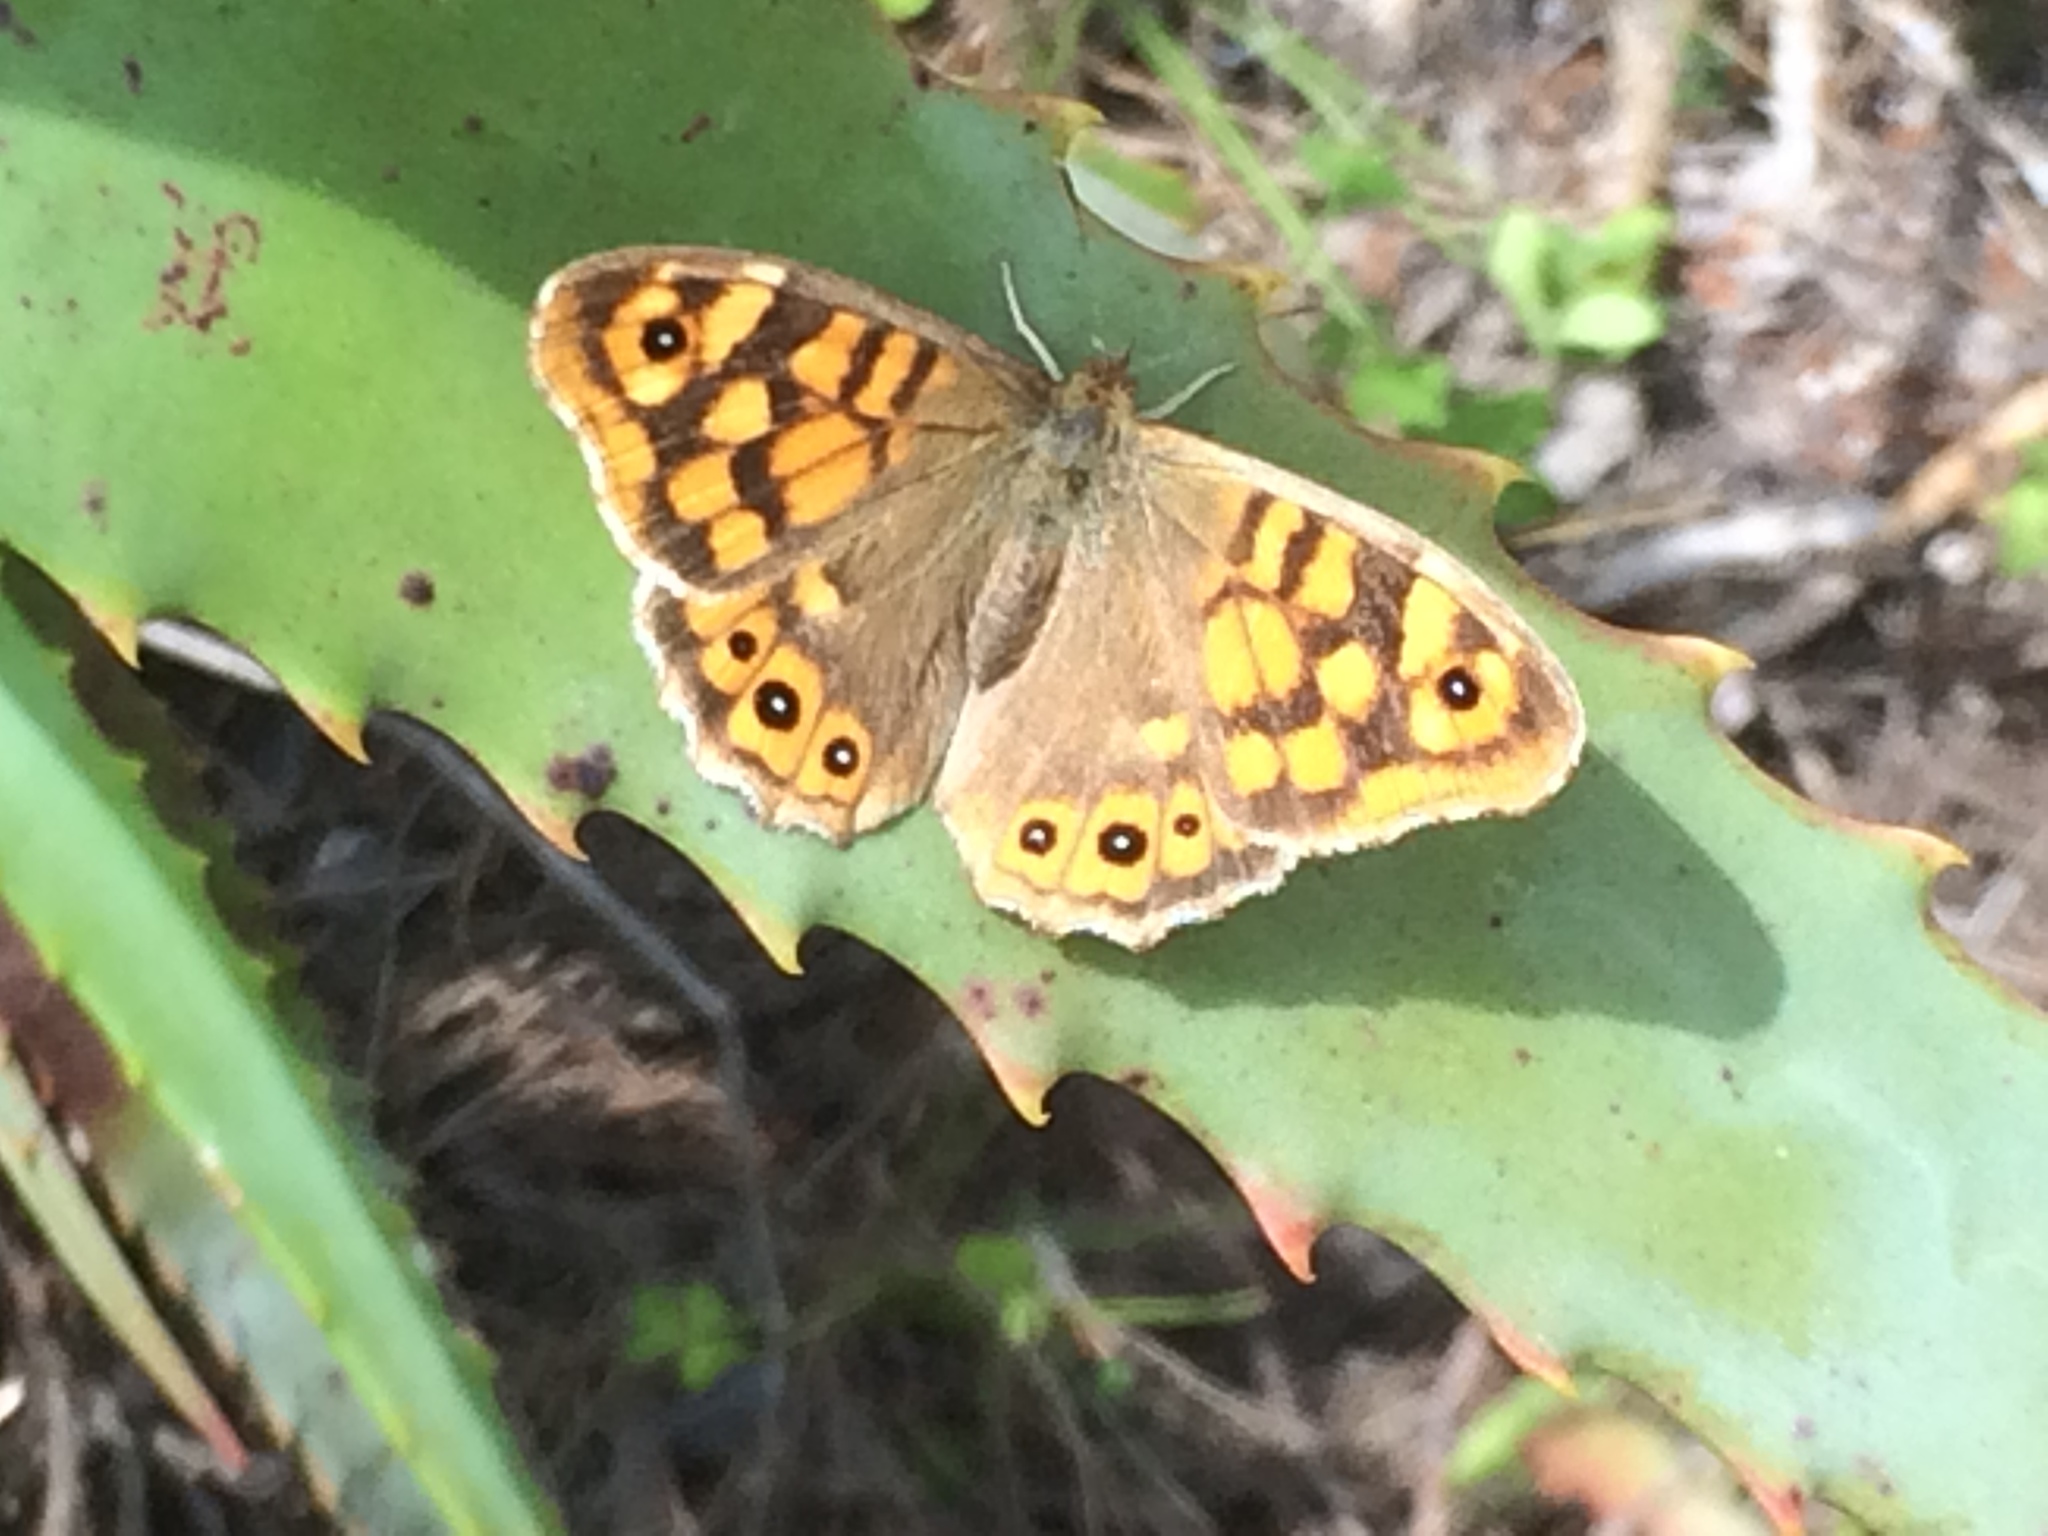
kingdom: Animalia
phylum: Arthropoda
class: Insecta
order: Lepidoptera
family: Nymphalidae
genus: Pararge
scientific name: Pararge aegeria
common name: Speckled wood
